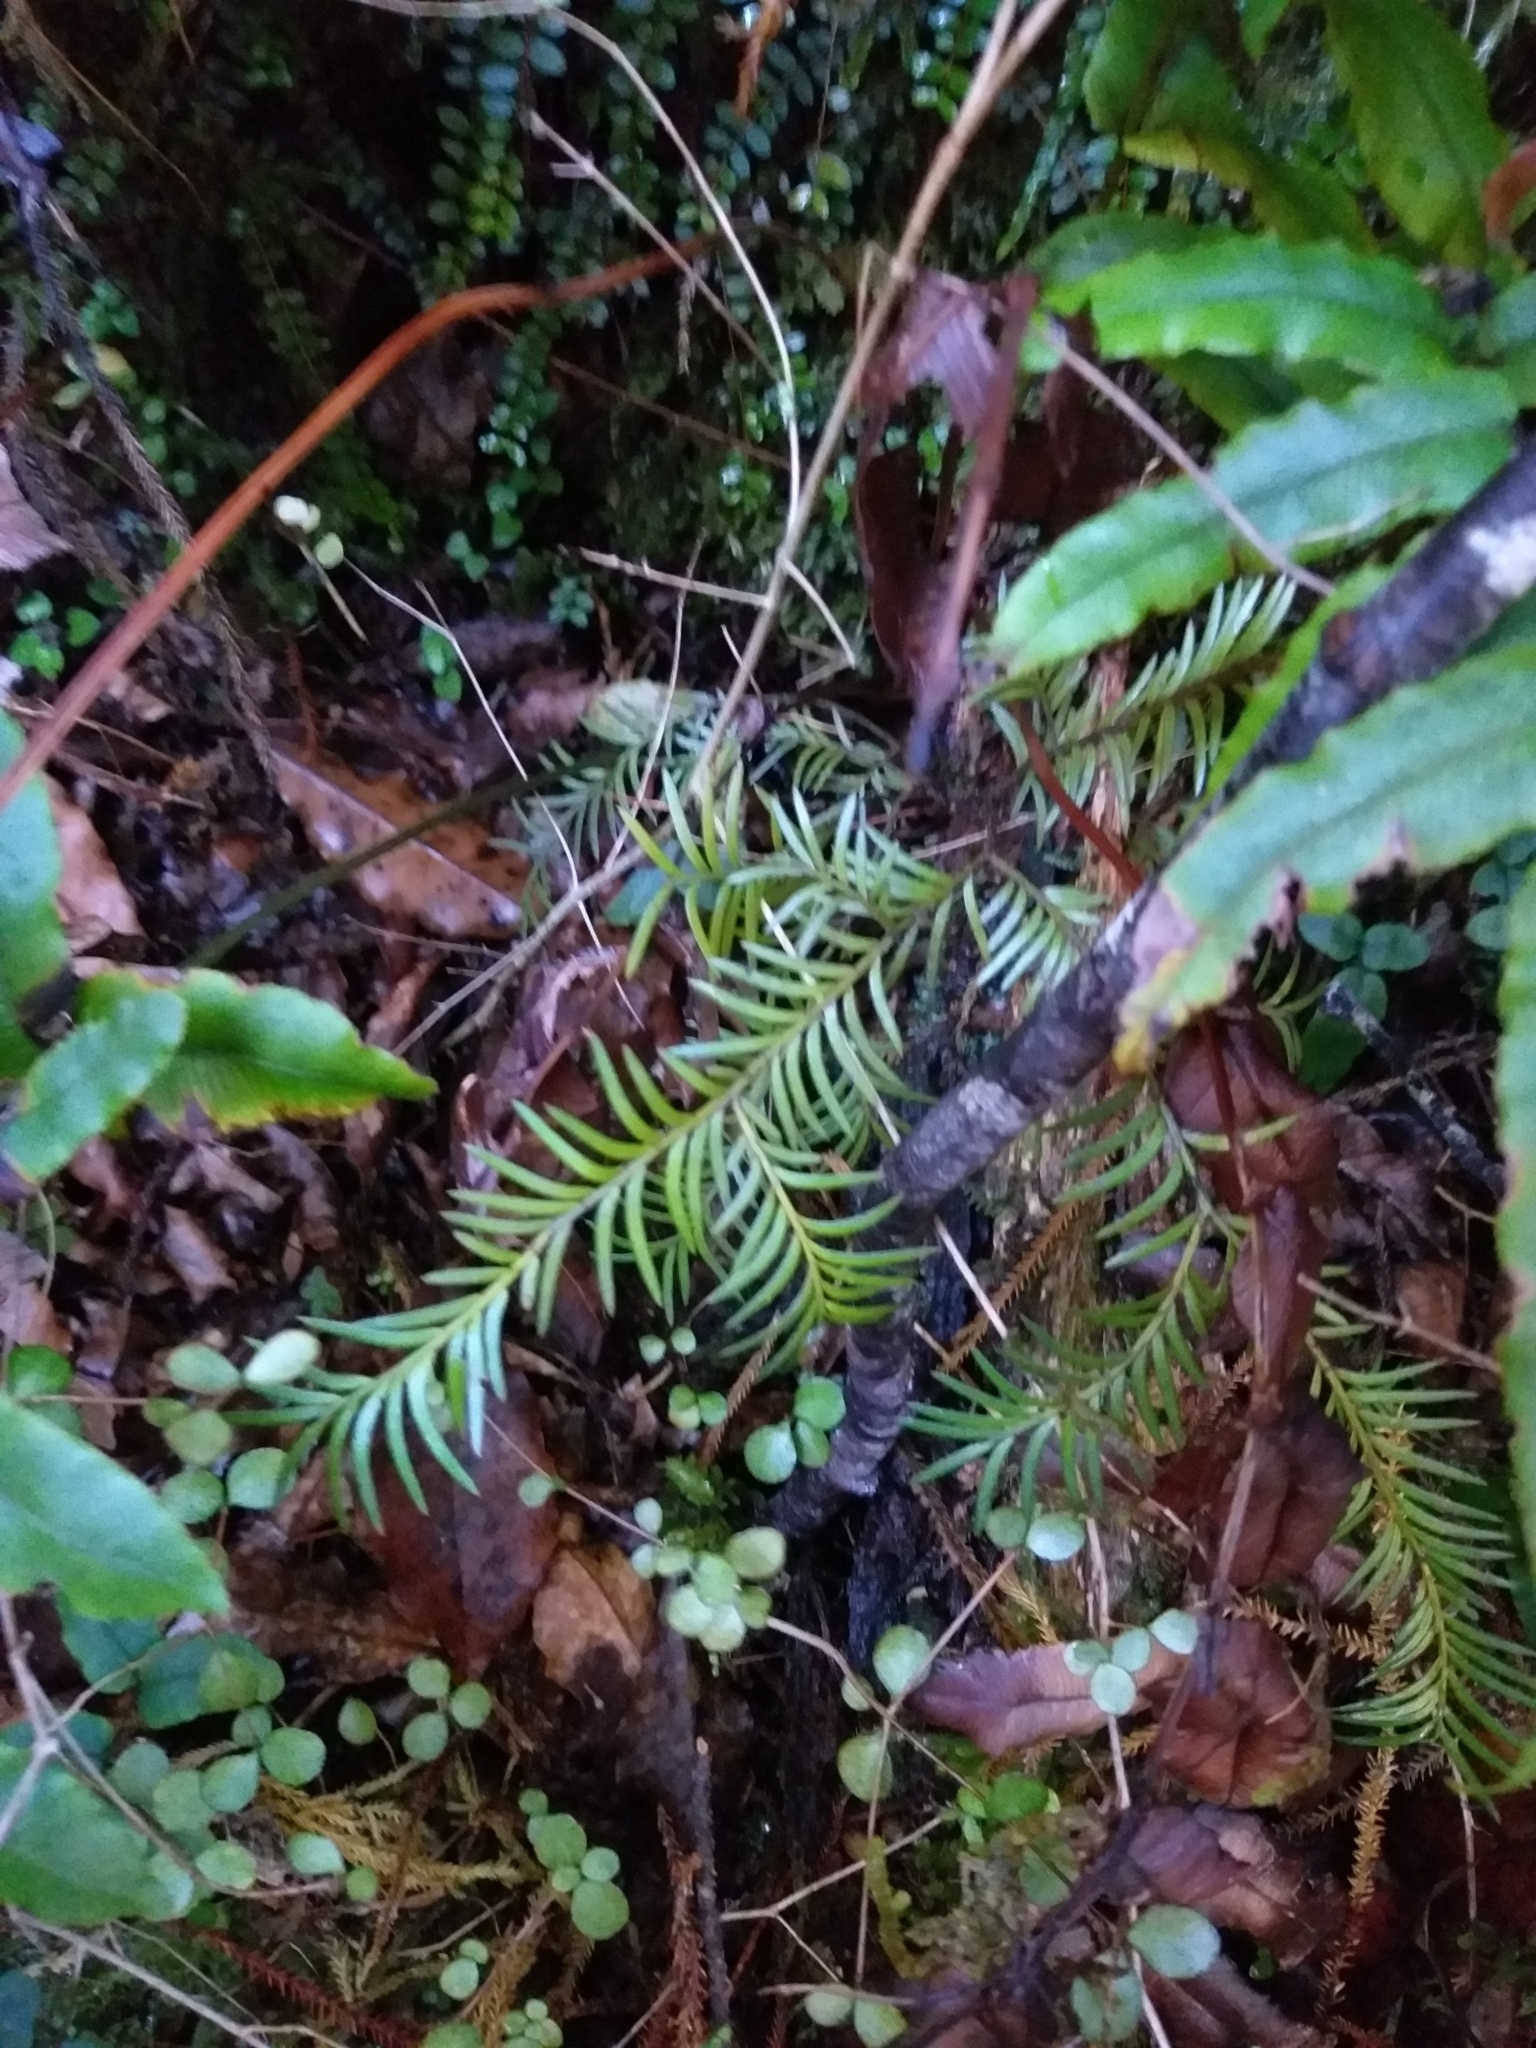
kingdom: Plantae
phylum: Tracheophyta
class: Pinopsida
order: Pinales
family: Podocarpaceae
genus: Prumnopitys
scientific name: Prumnopitys ferruginea
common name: Brown pine
